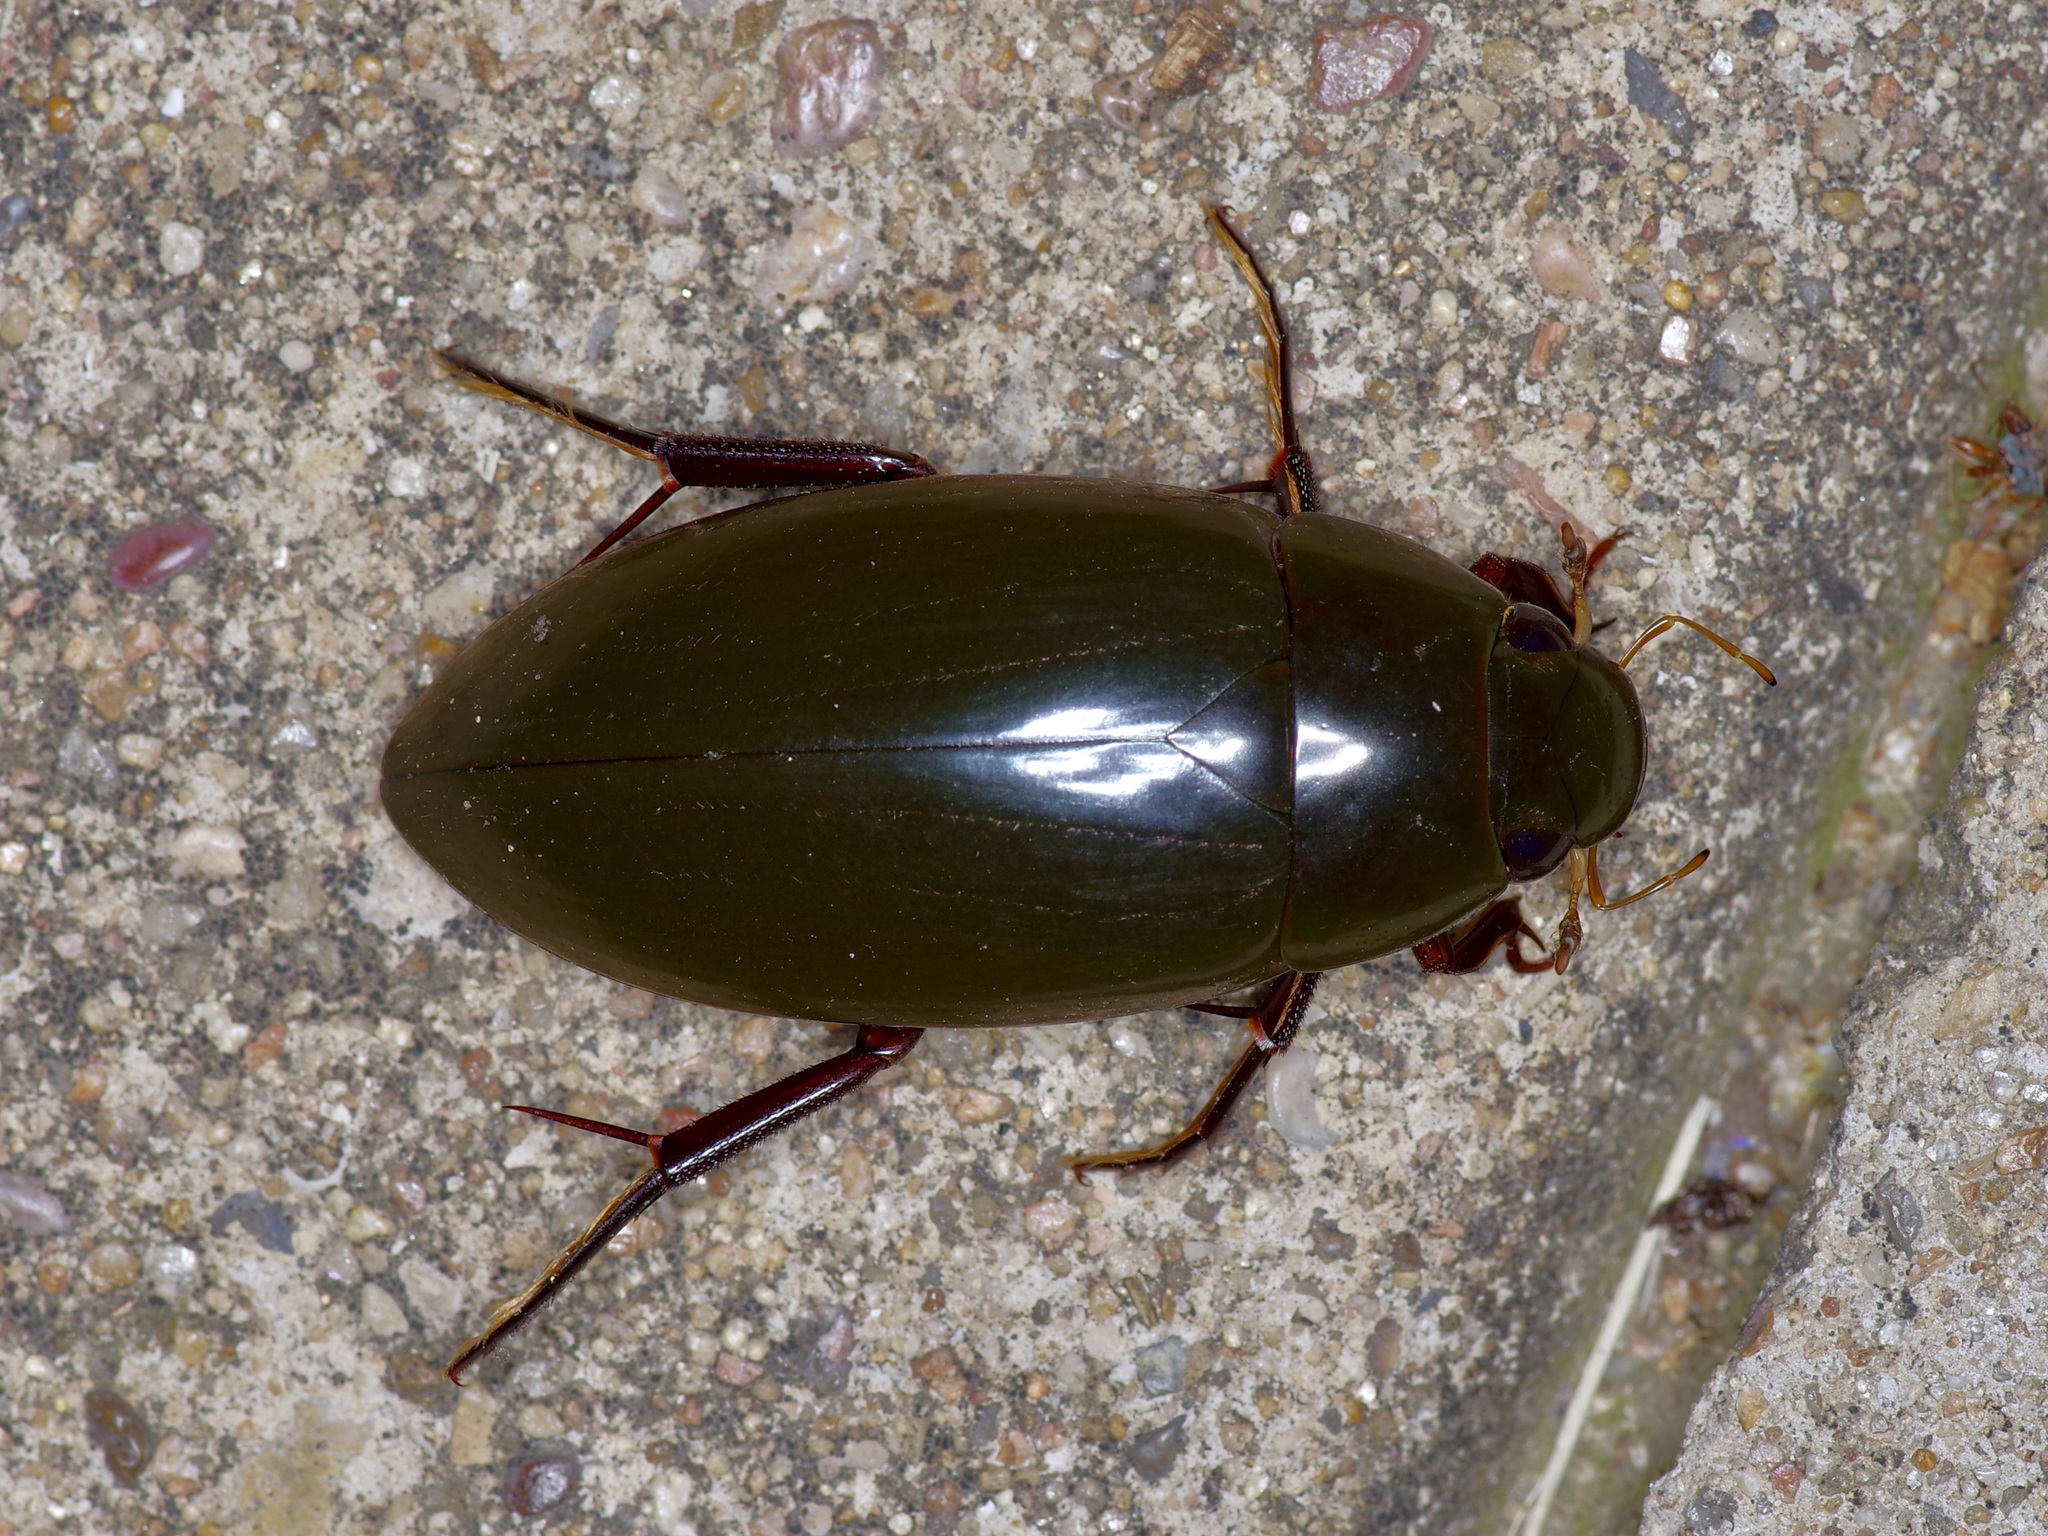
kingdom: Animalia
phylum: Arthropoda
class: Insecta
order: Coleoptera
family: Hydrophilidae
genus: Hydrophilus
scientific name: Hydrophilus triangularis
